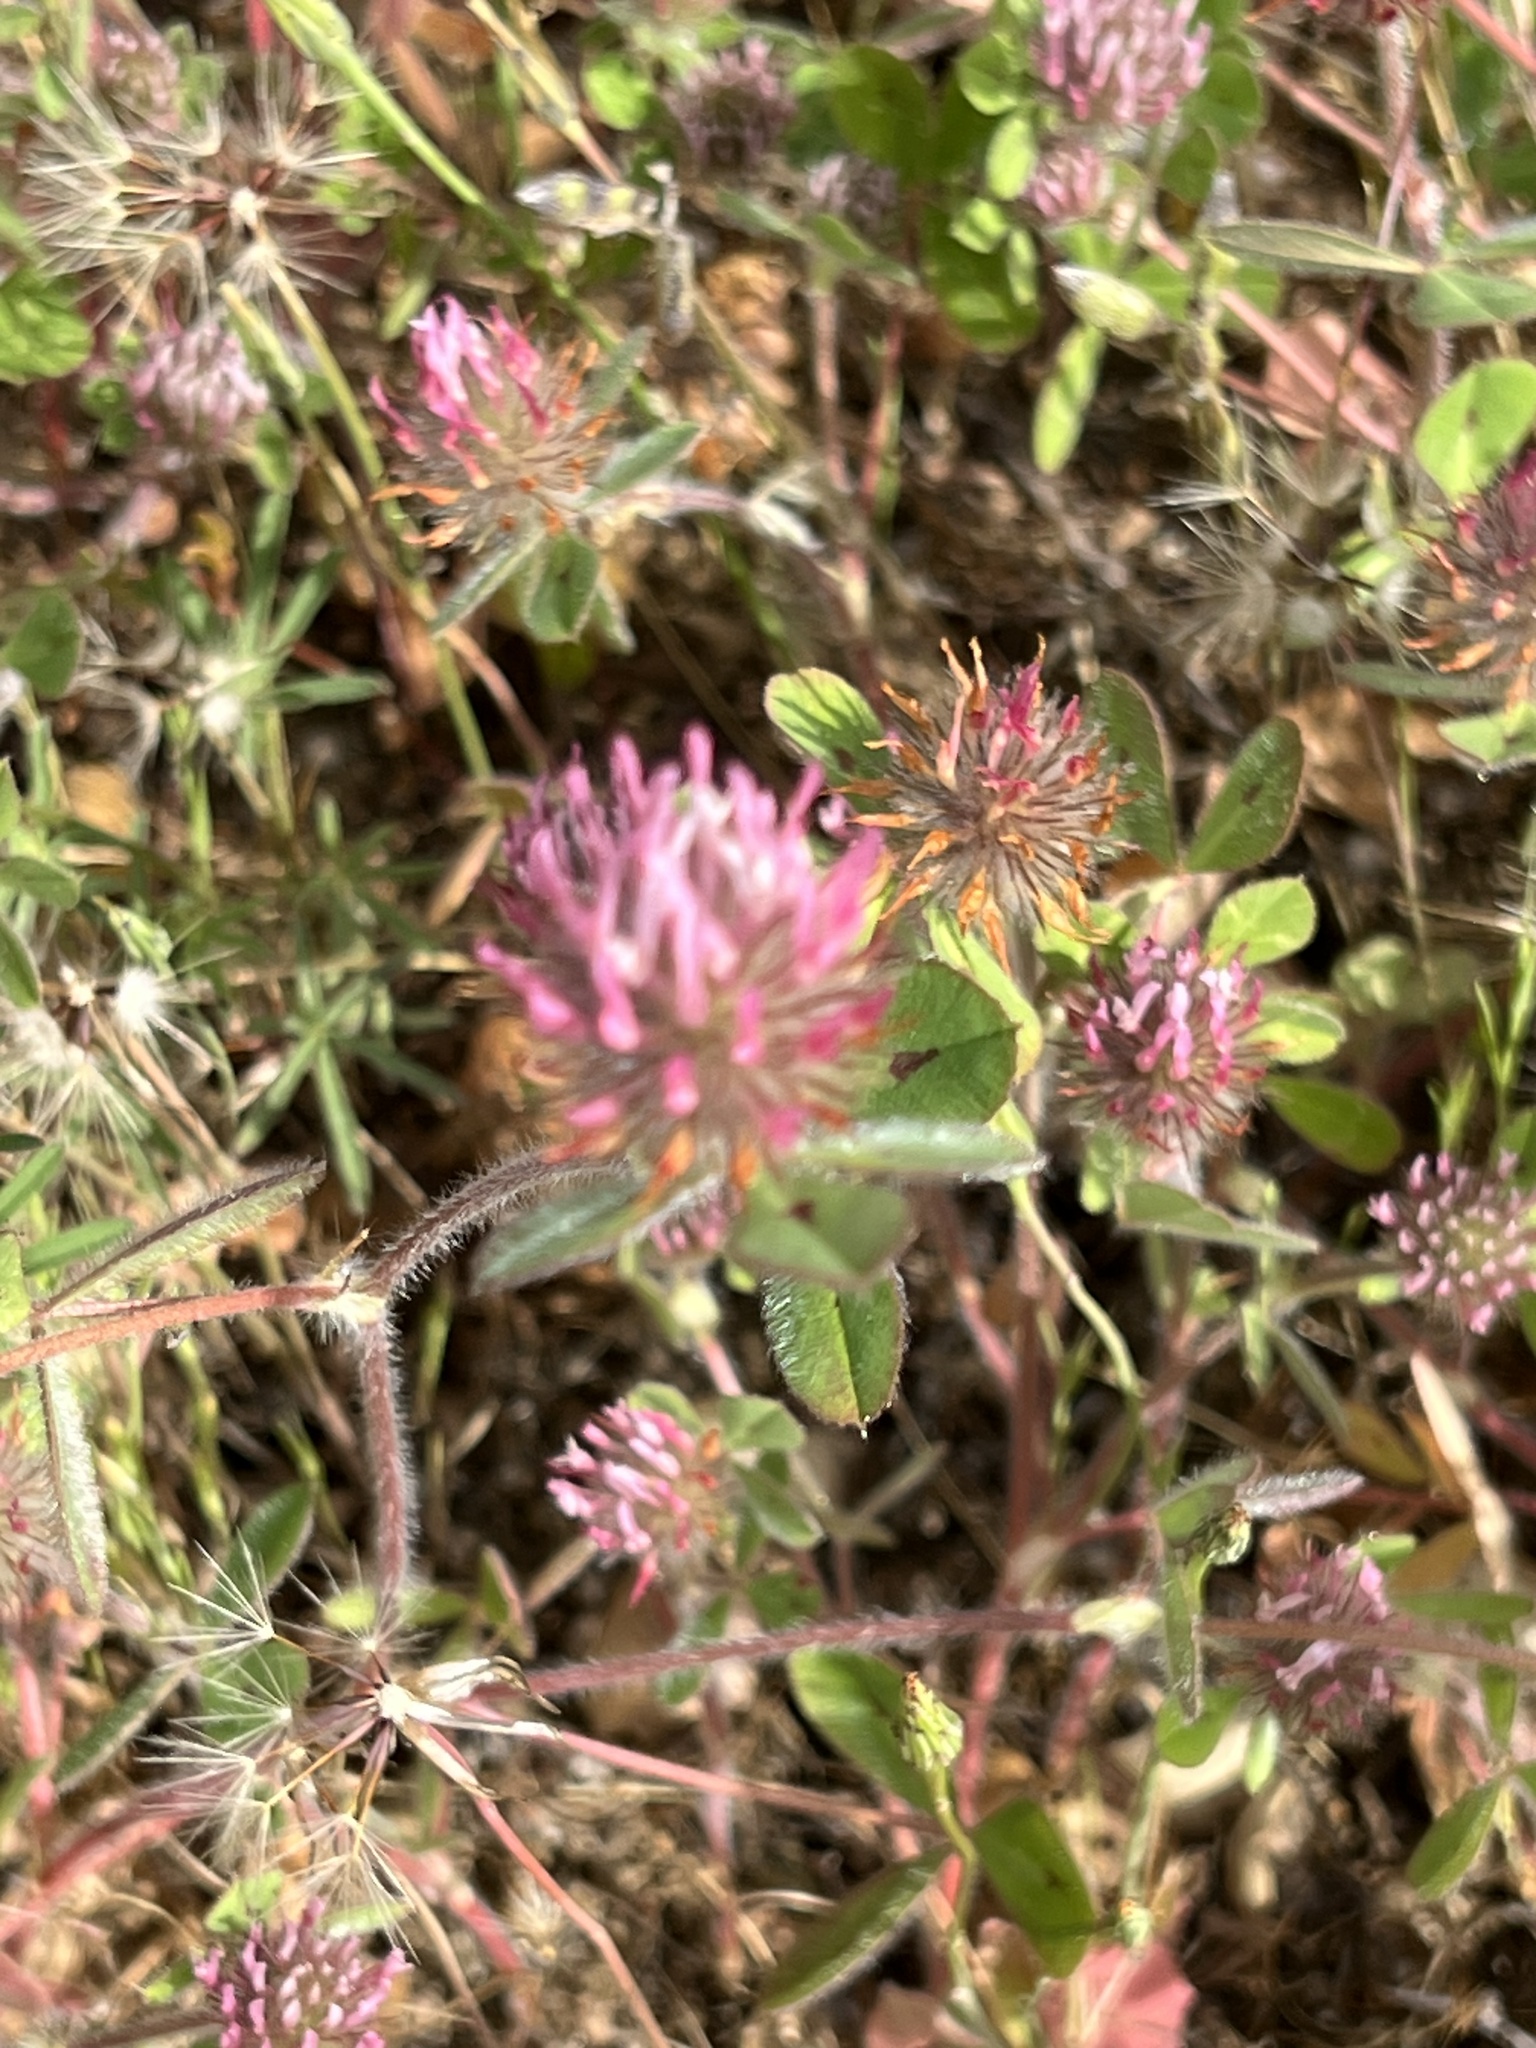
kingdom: Plantae
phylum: Tracheophyta
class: Magnoliopsida
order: Fabales
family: Fabaceae
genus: Trifolium
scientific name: Trifolium hirtum
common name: Rose clover
